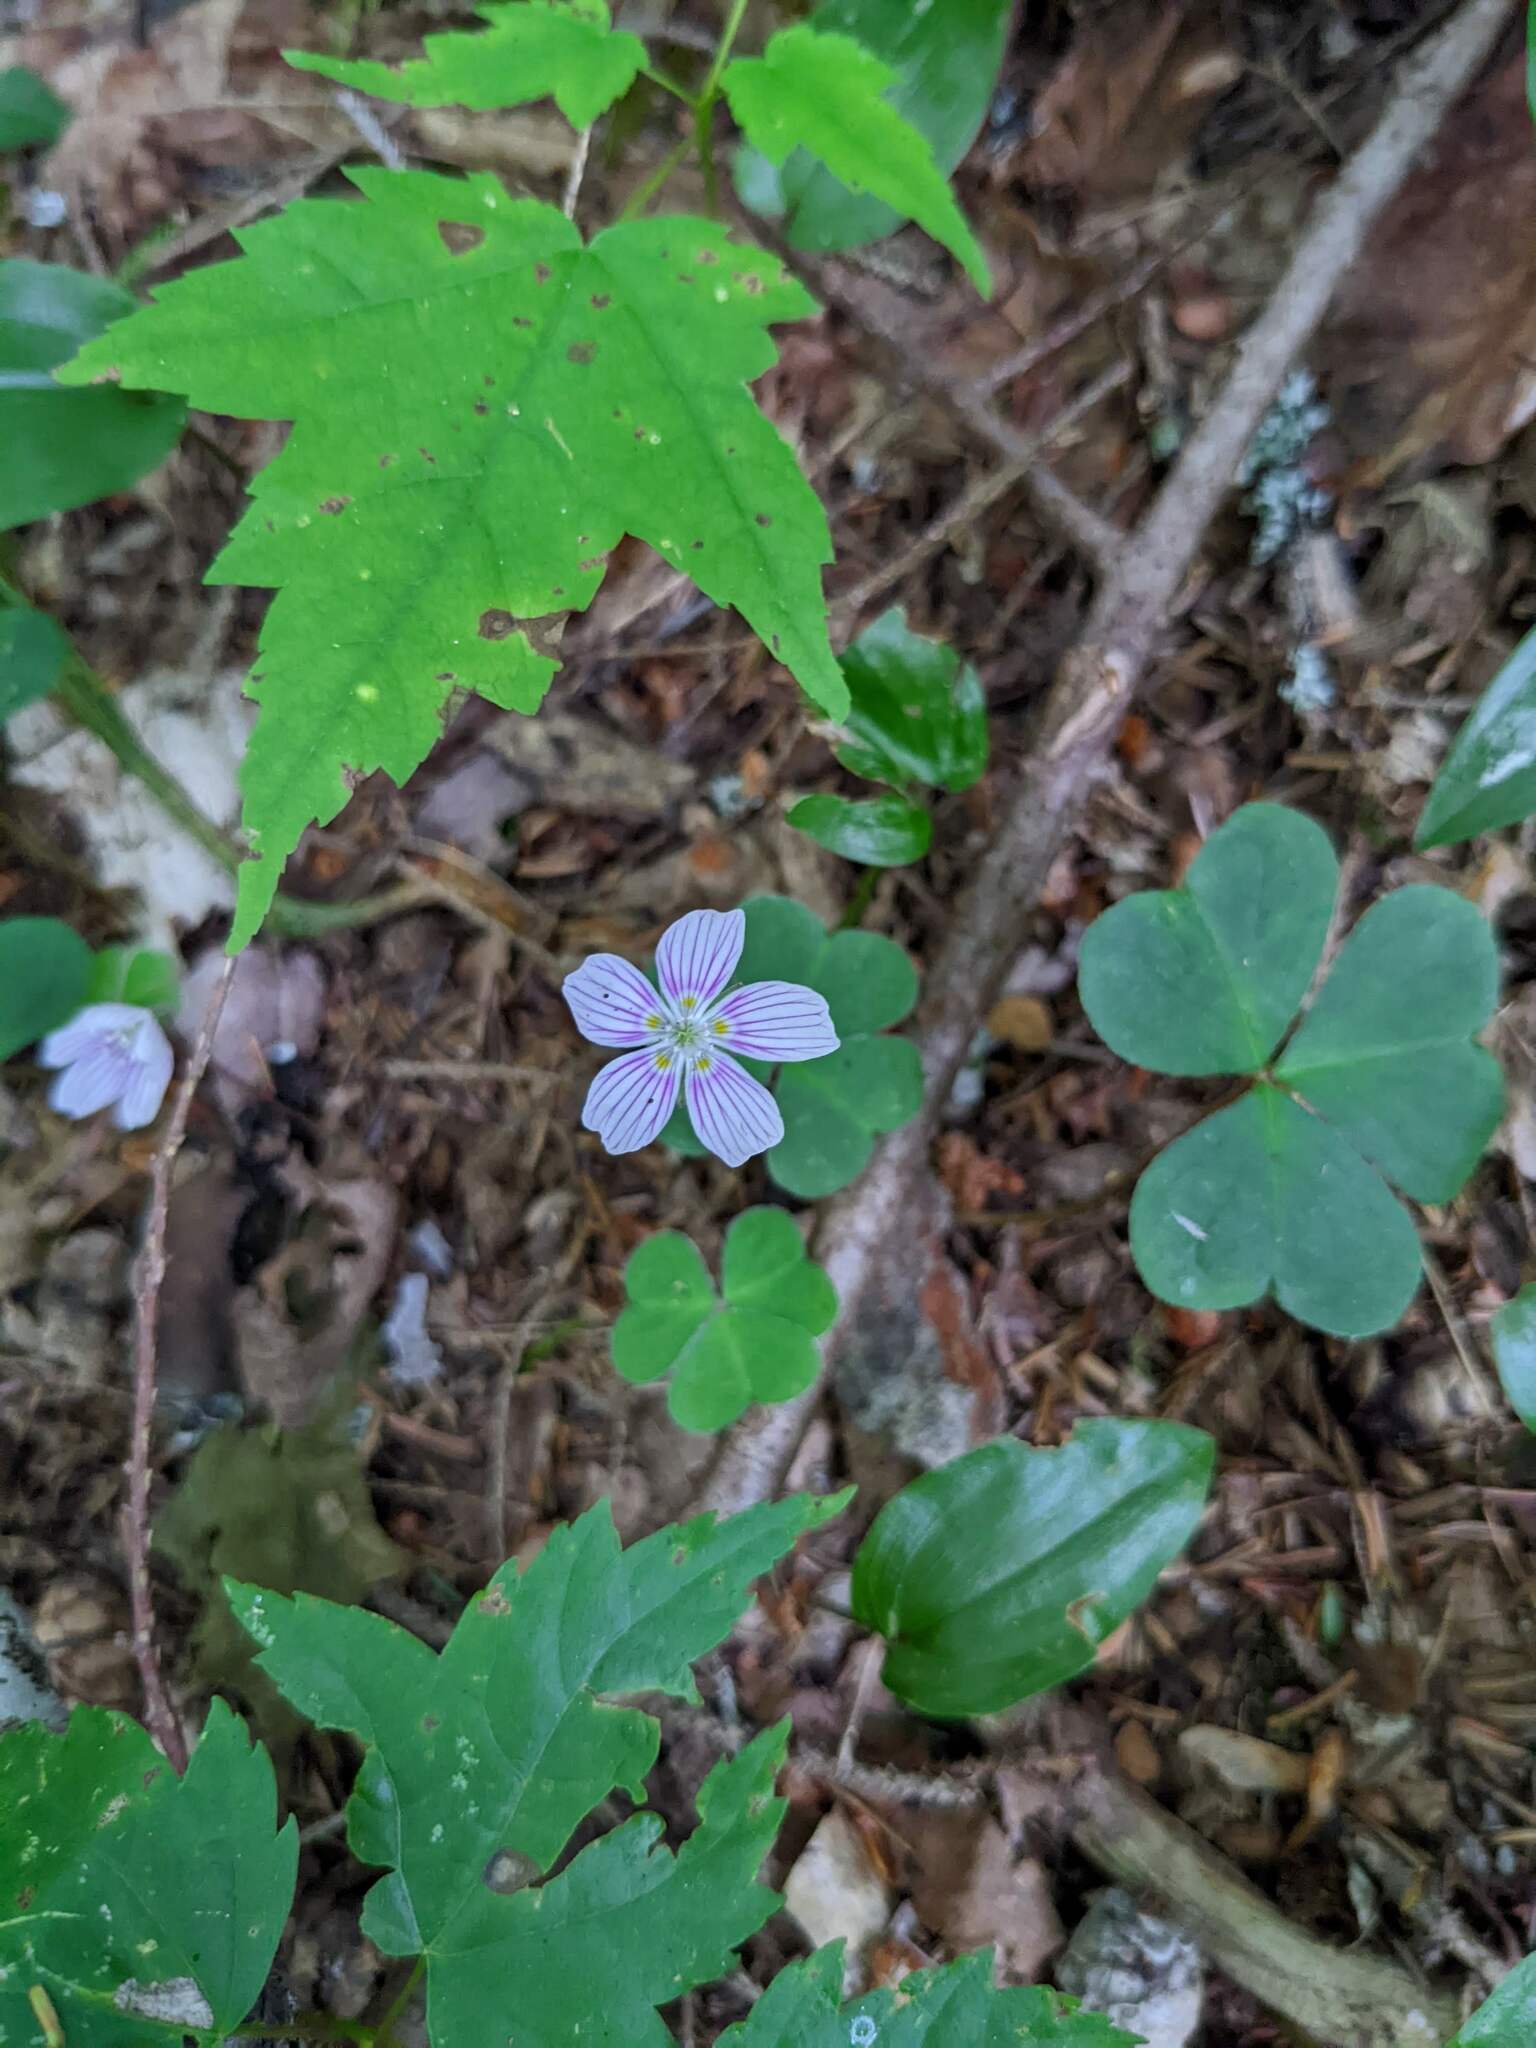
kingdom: Plantae
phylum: Tracheophyta
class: Magnoliopsida
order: Oxalidales
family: Oxalidaceae
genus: Oxalis
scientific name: Oxalis montana
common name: American wood-sorrel
